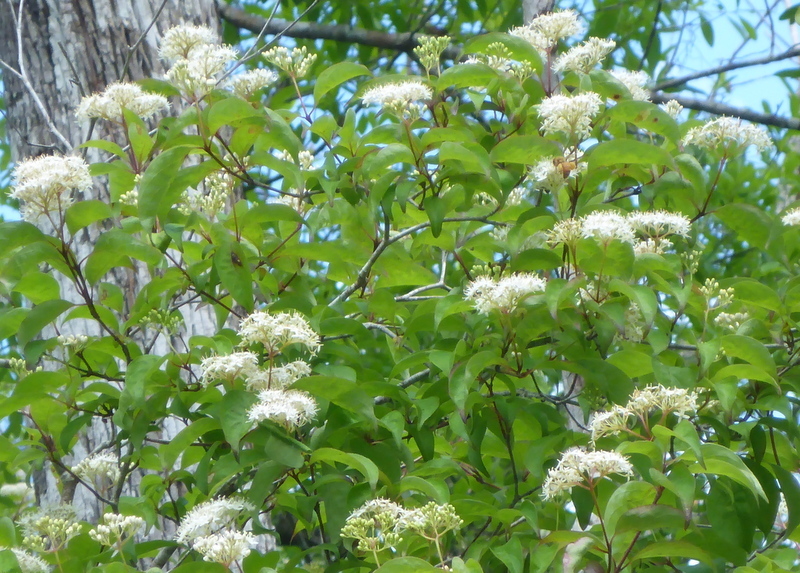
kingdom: Plantae
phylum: Tracheophyta
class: Magnoliopsida
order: Cornales
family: Cornaceae
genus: Cornus
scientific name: Cornus foemina
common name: Swamp dogwood
